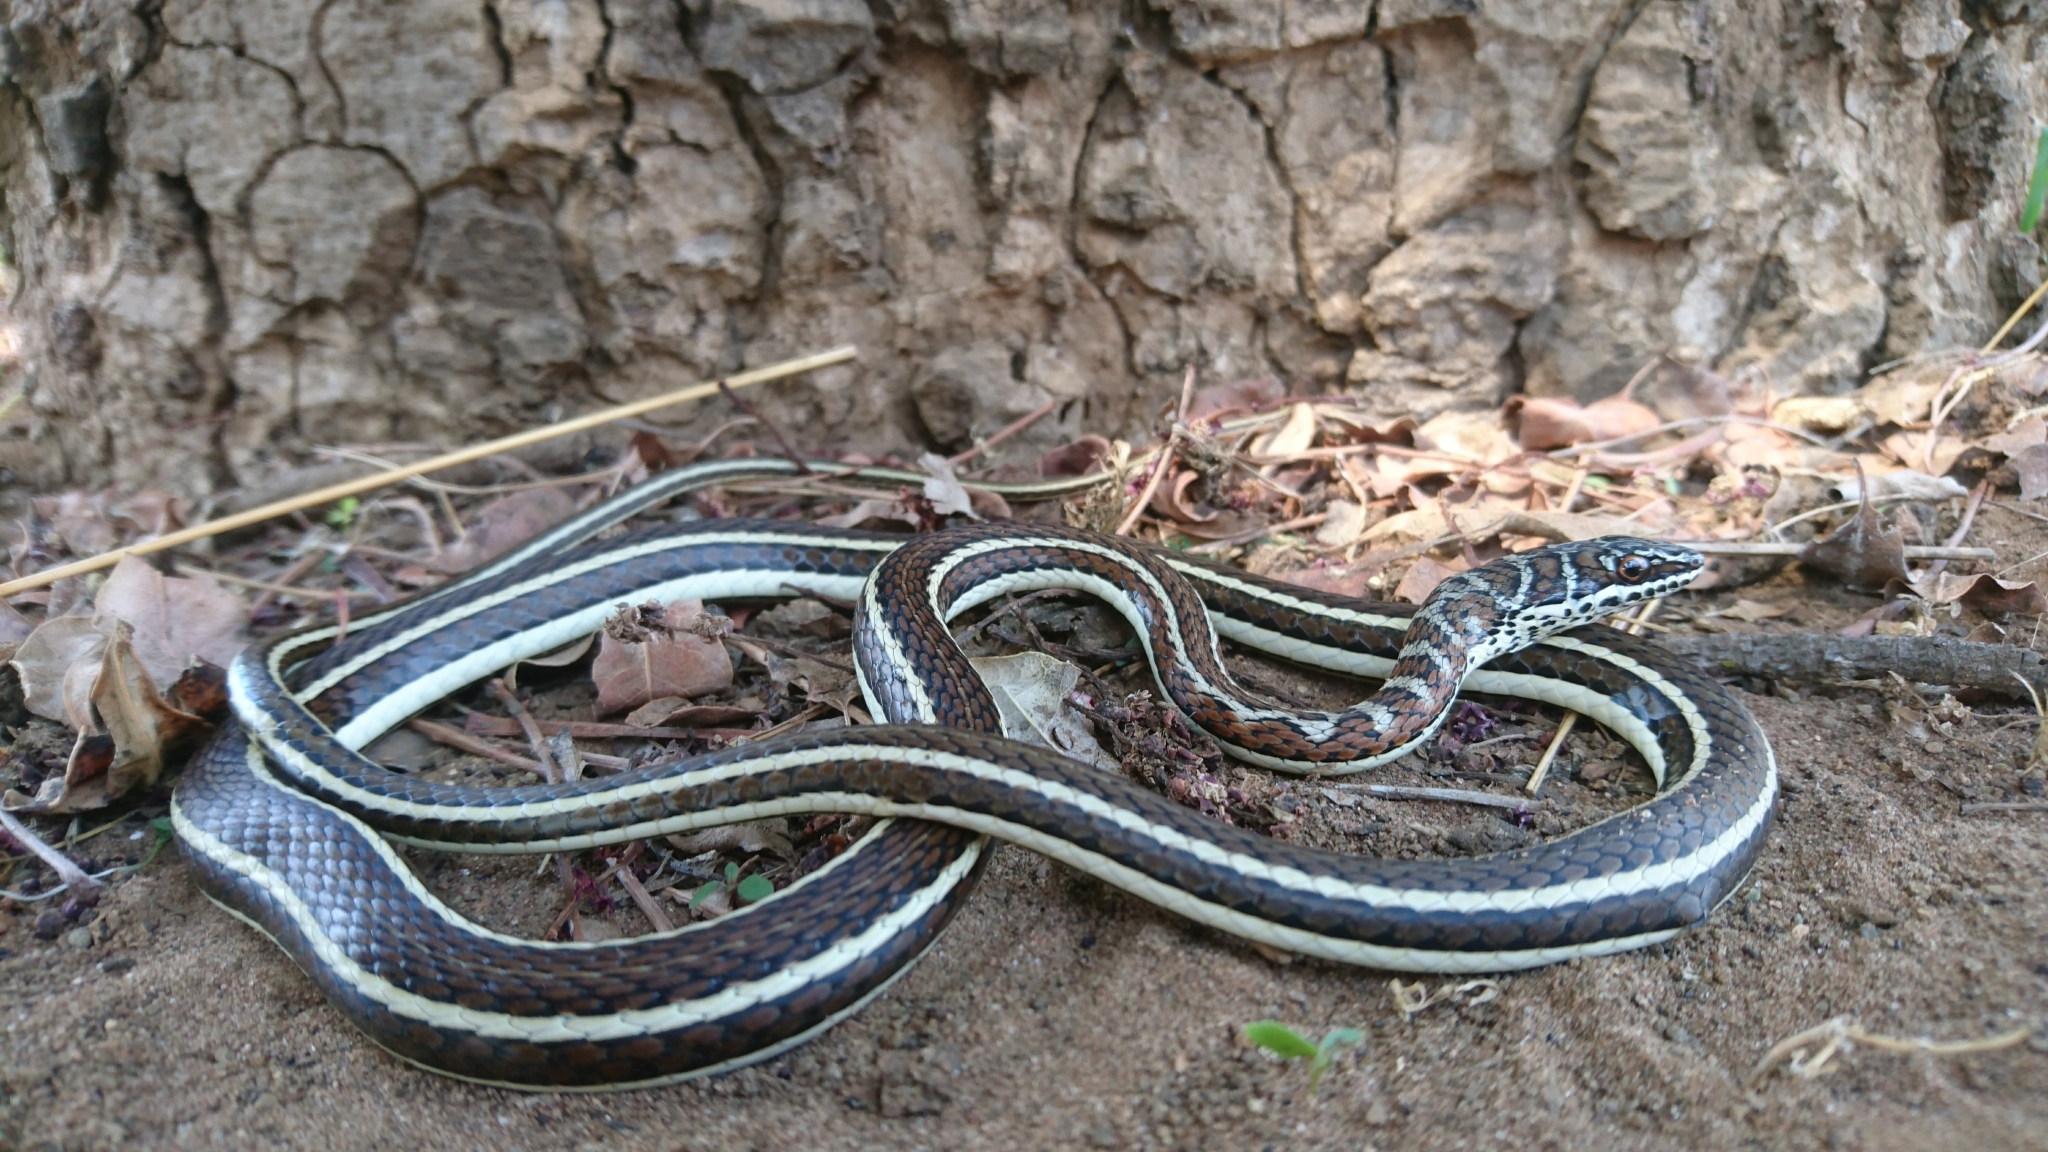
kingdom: Animalia
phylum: Chordata
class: Squamata
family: Psammophiidae
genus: Psammophis
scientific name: Psammophis subtaeniatus
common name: Stripe-bellied sand snake
